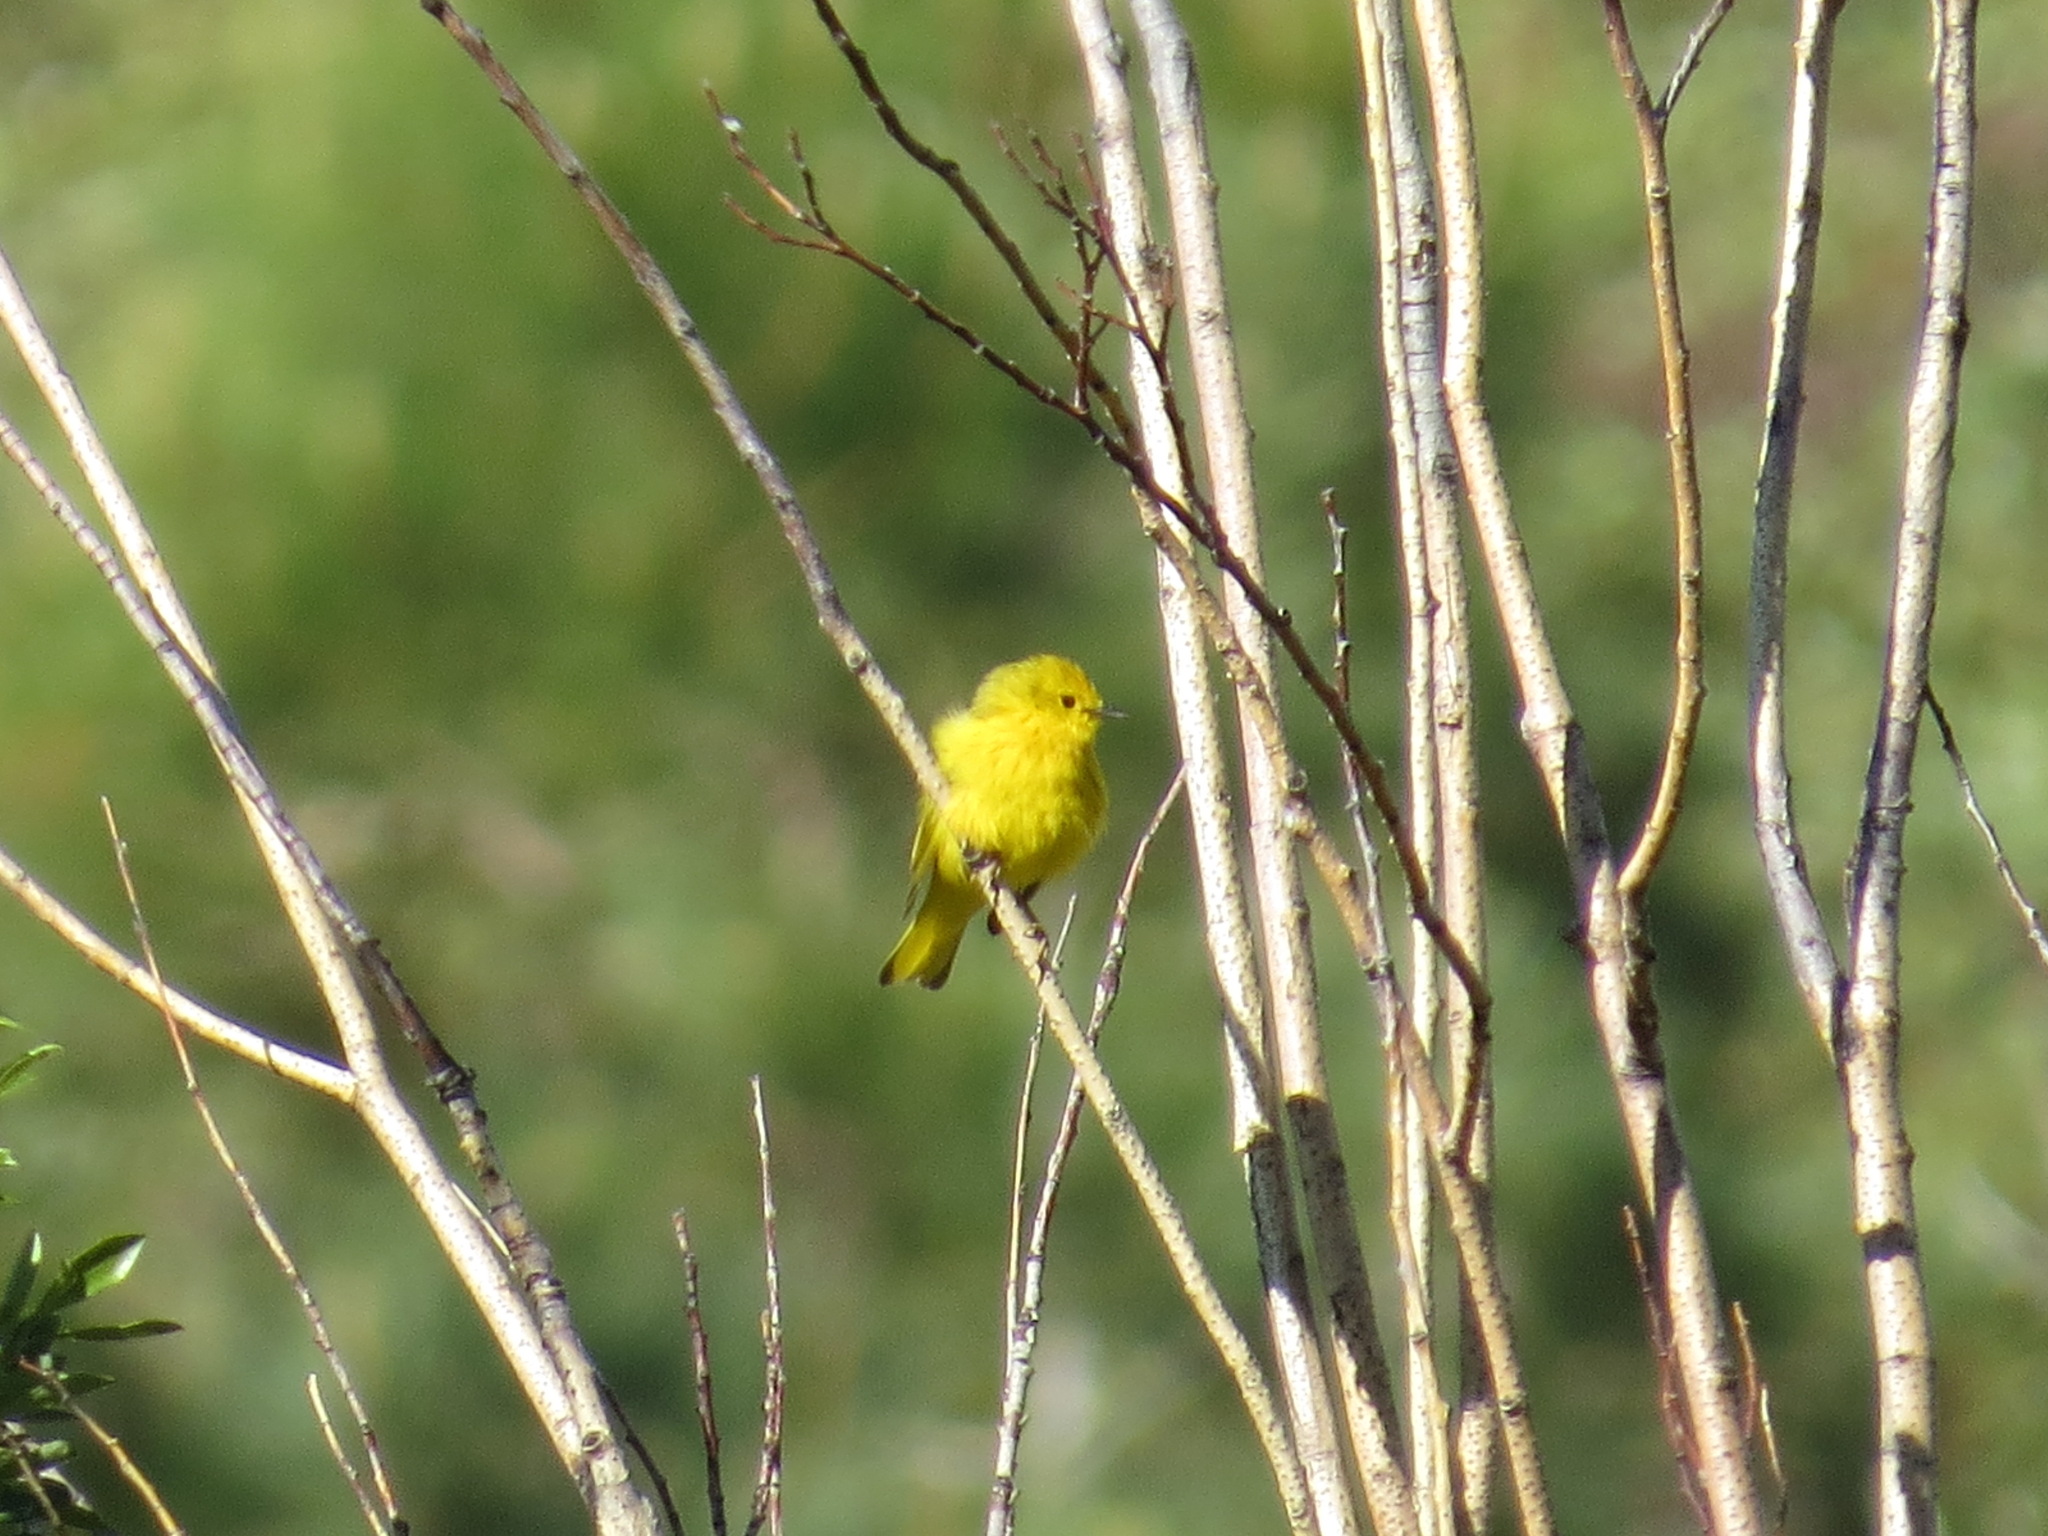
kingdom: Animalia
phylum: Chordata
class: Aves
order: Passeriformes
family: Parulidae
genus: Setophaga
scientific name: Setophaga petechia
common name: Yellow warbler
